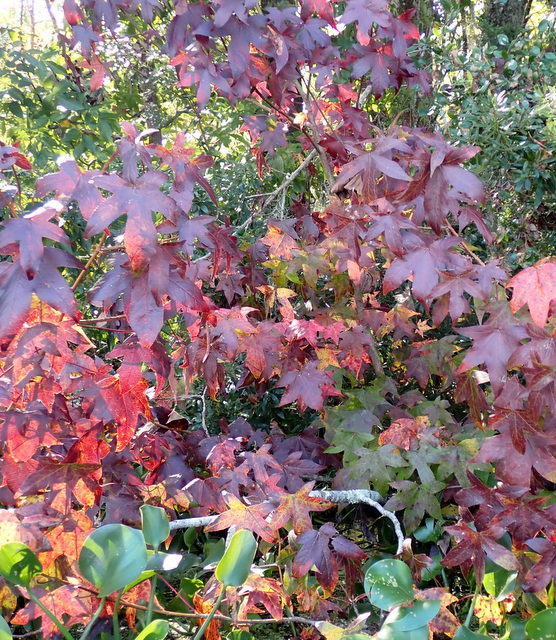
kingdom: Plantae
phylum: Tracheophyta
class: Magnoliopsida
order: Saxifragales
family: Altingiaceae
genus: Liquidambar
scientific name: Liquidambar styraciflua
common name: Sweet gum
